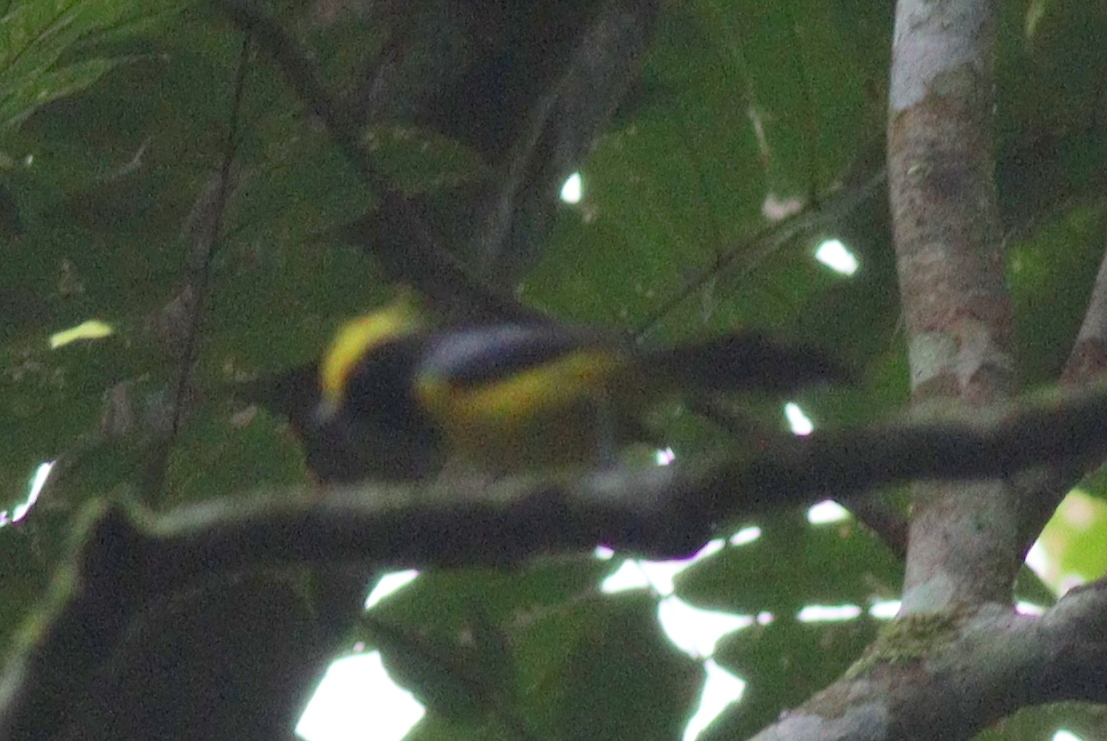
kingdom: Animalia
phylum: Chordata
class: Aves
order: Passeriformes
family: Paridae
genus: Melanochlora
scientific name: Melanochlora sultanea
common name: Sultan tit
